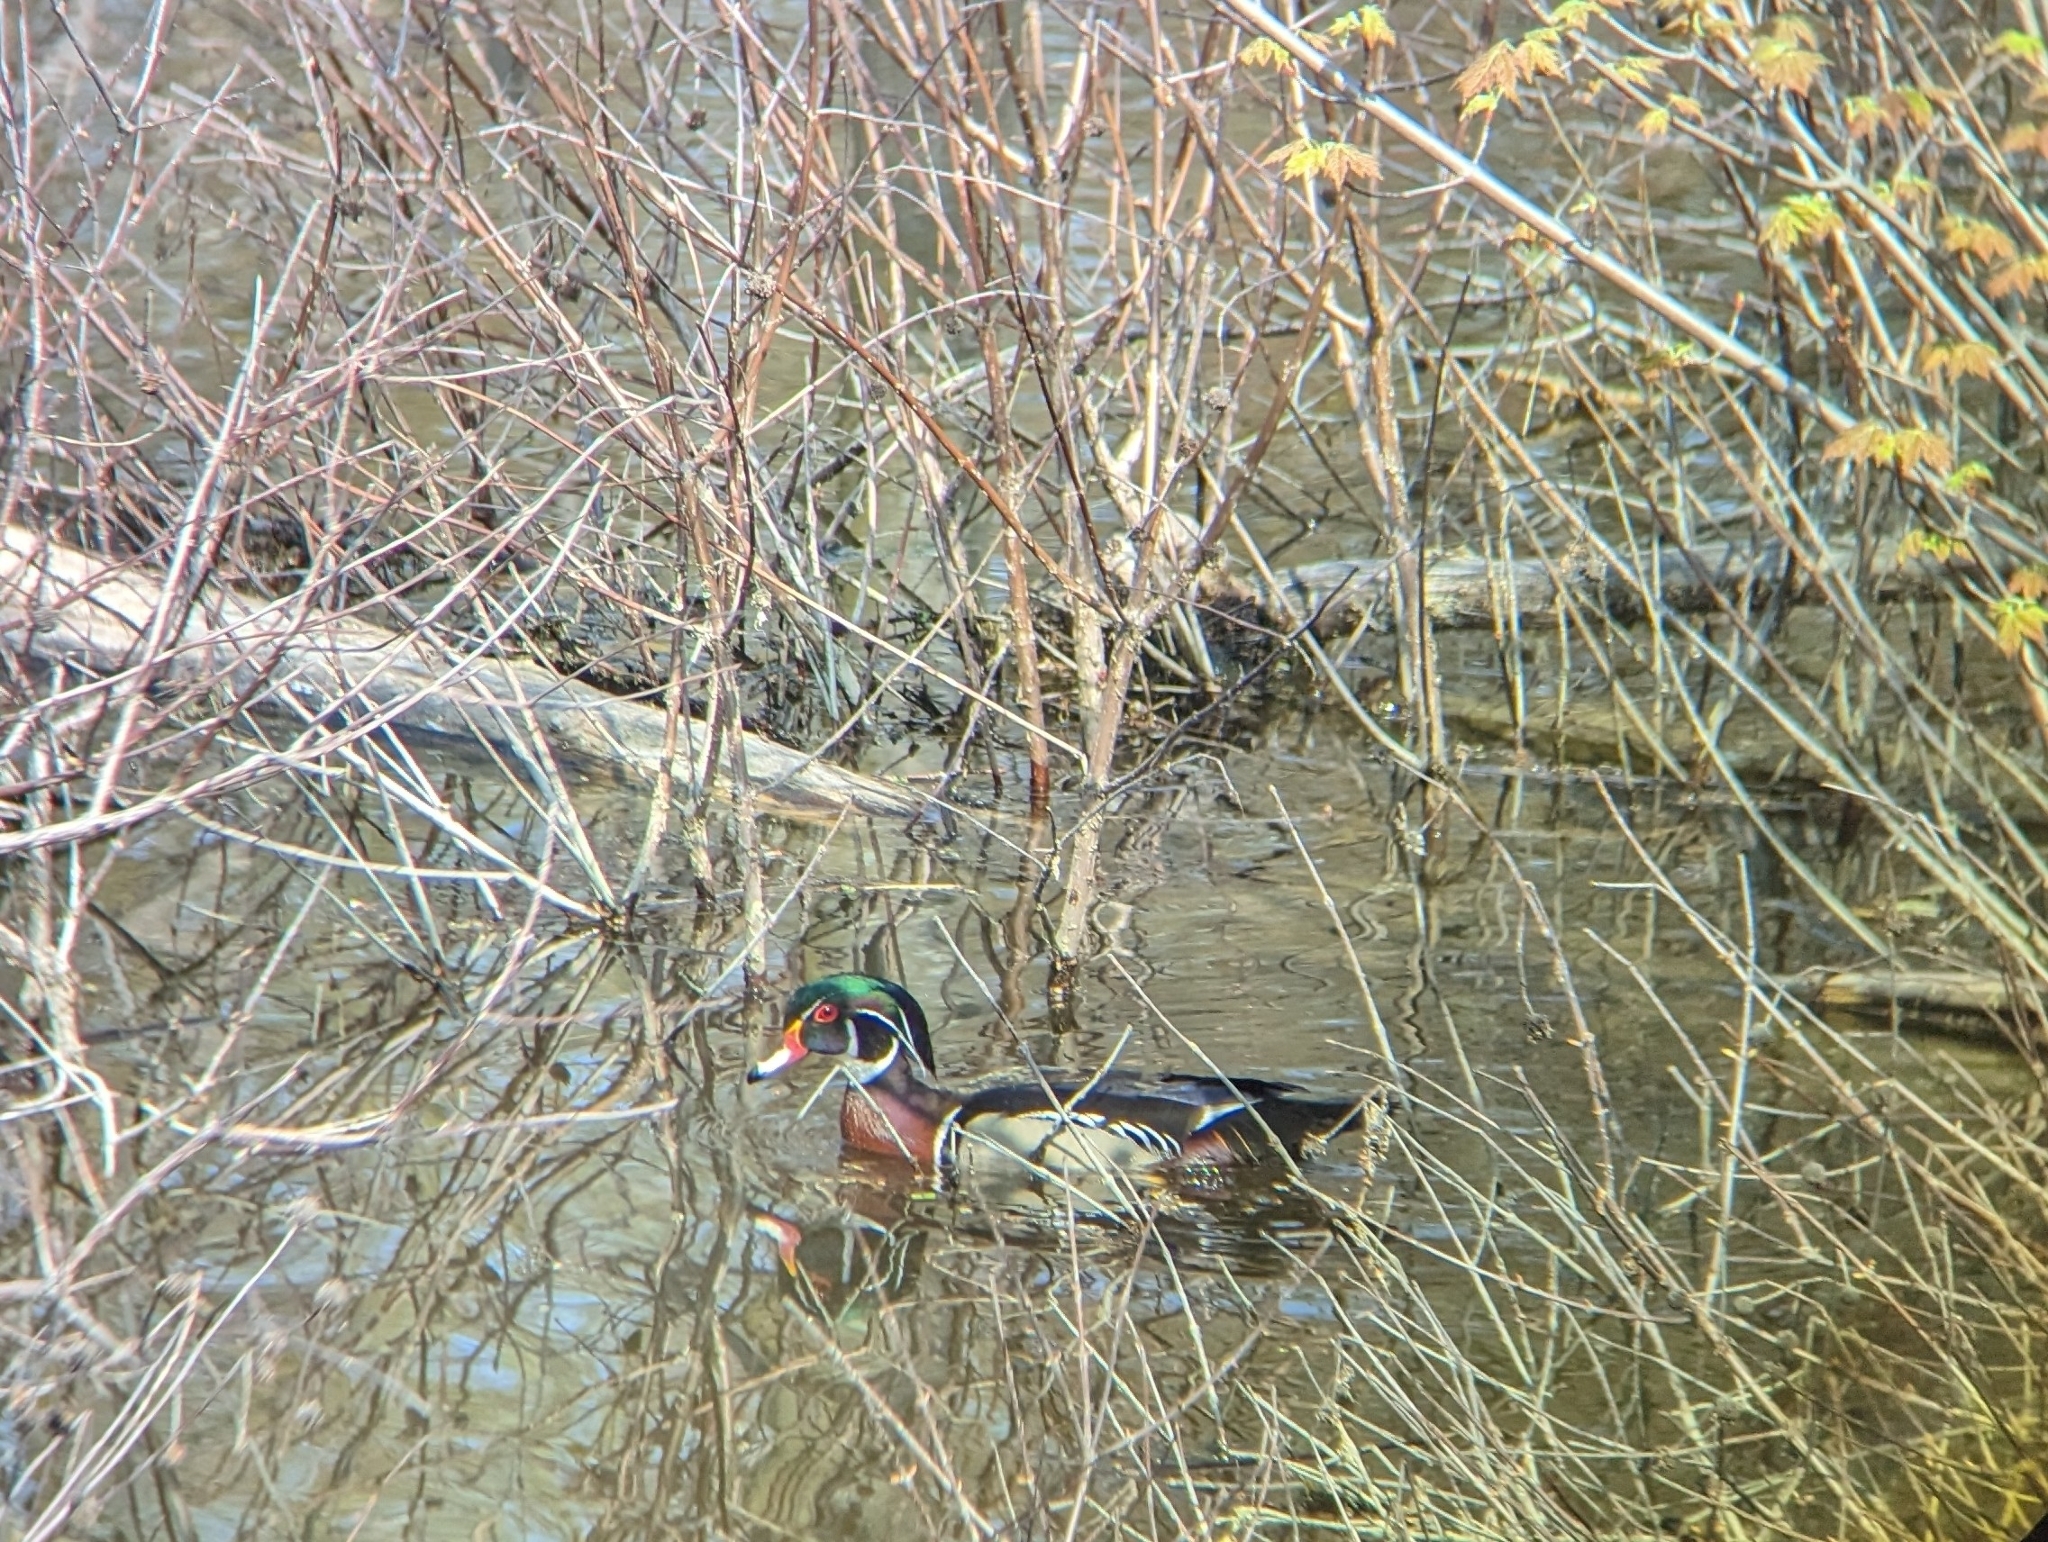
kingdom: Animalia
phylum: Chordata
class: Aves
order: Anseriformes
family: Anatidae
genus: Aix
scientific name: Aix sponsa
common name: Wood duck
